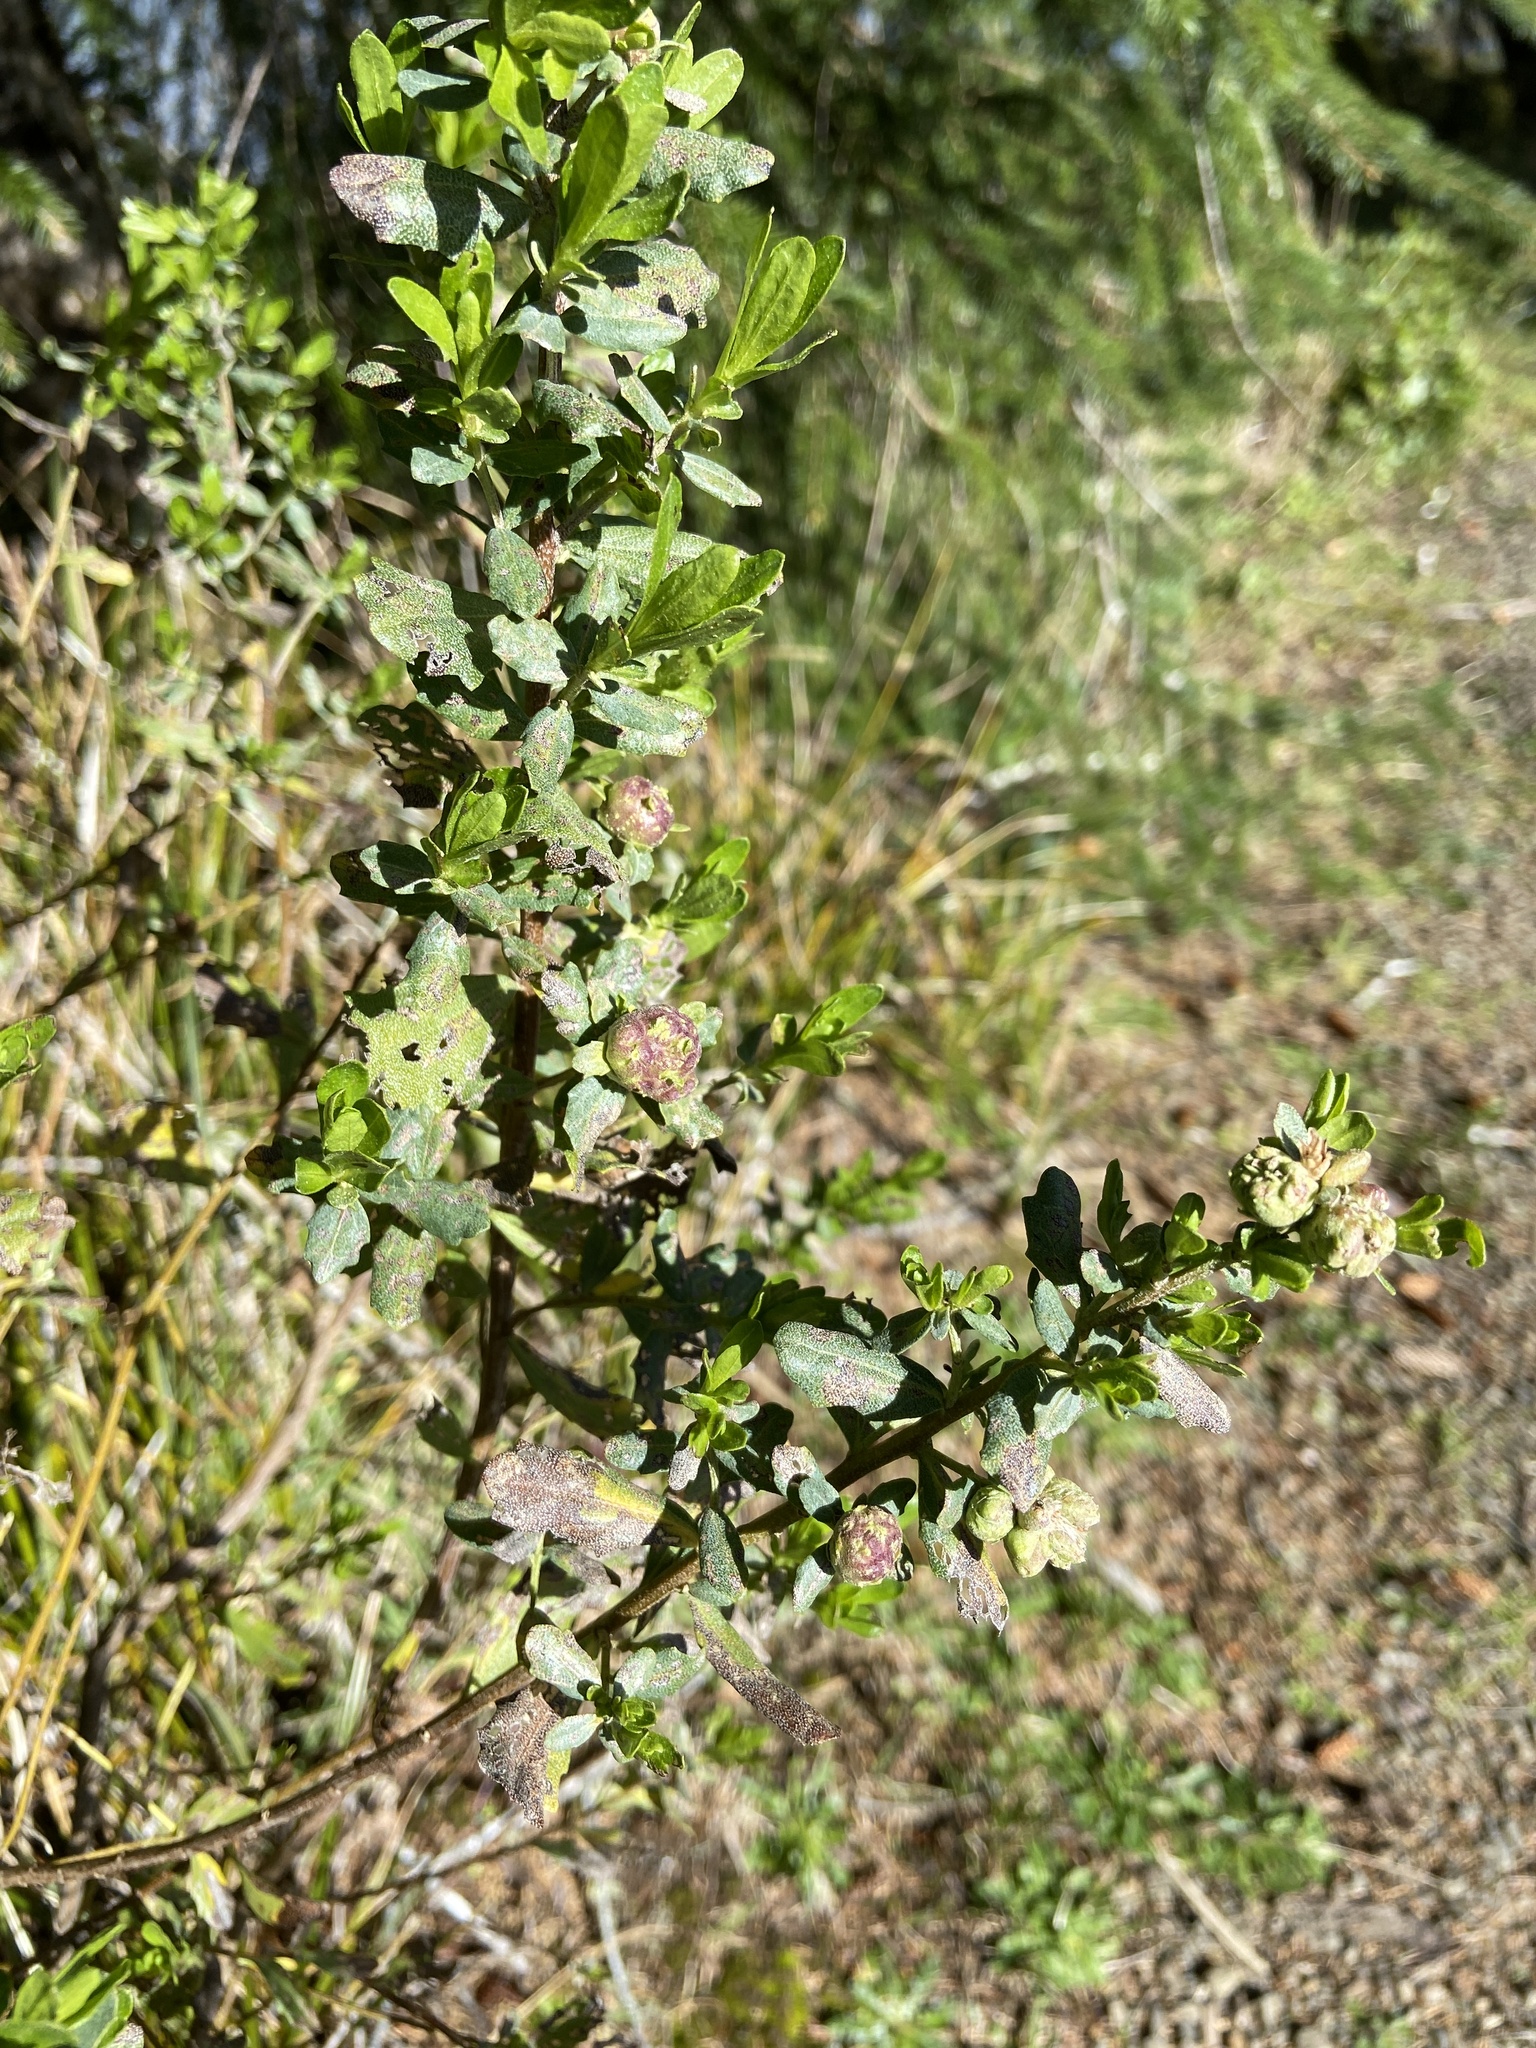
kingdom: Plantae
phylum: Tracheophyta
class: Magnoliopsida
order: Asterales
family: Asteraceae
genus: Baccharis
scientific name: Baccharis pilularis
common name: Coyotebrush
